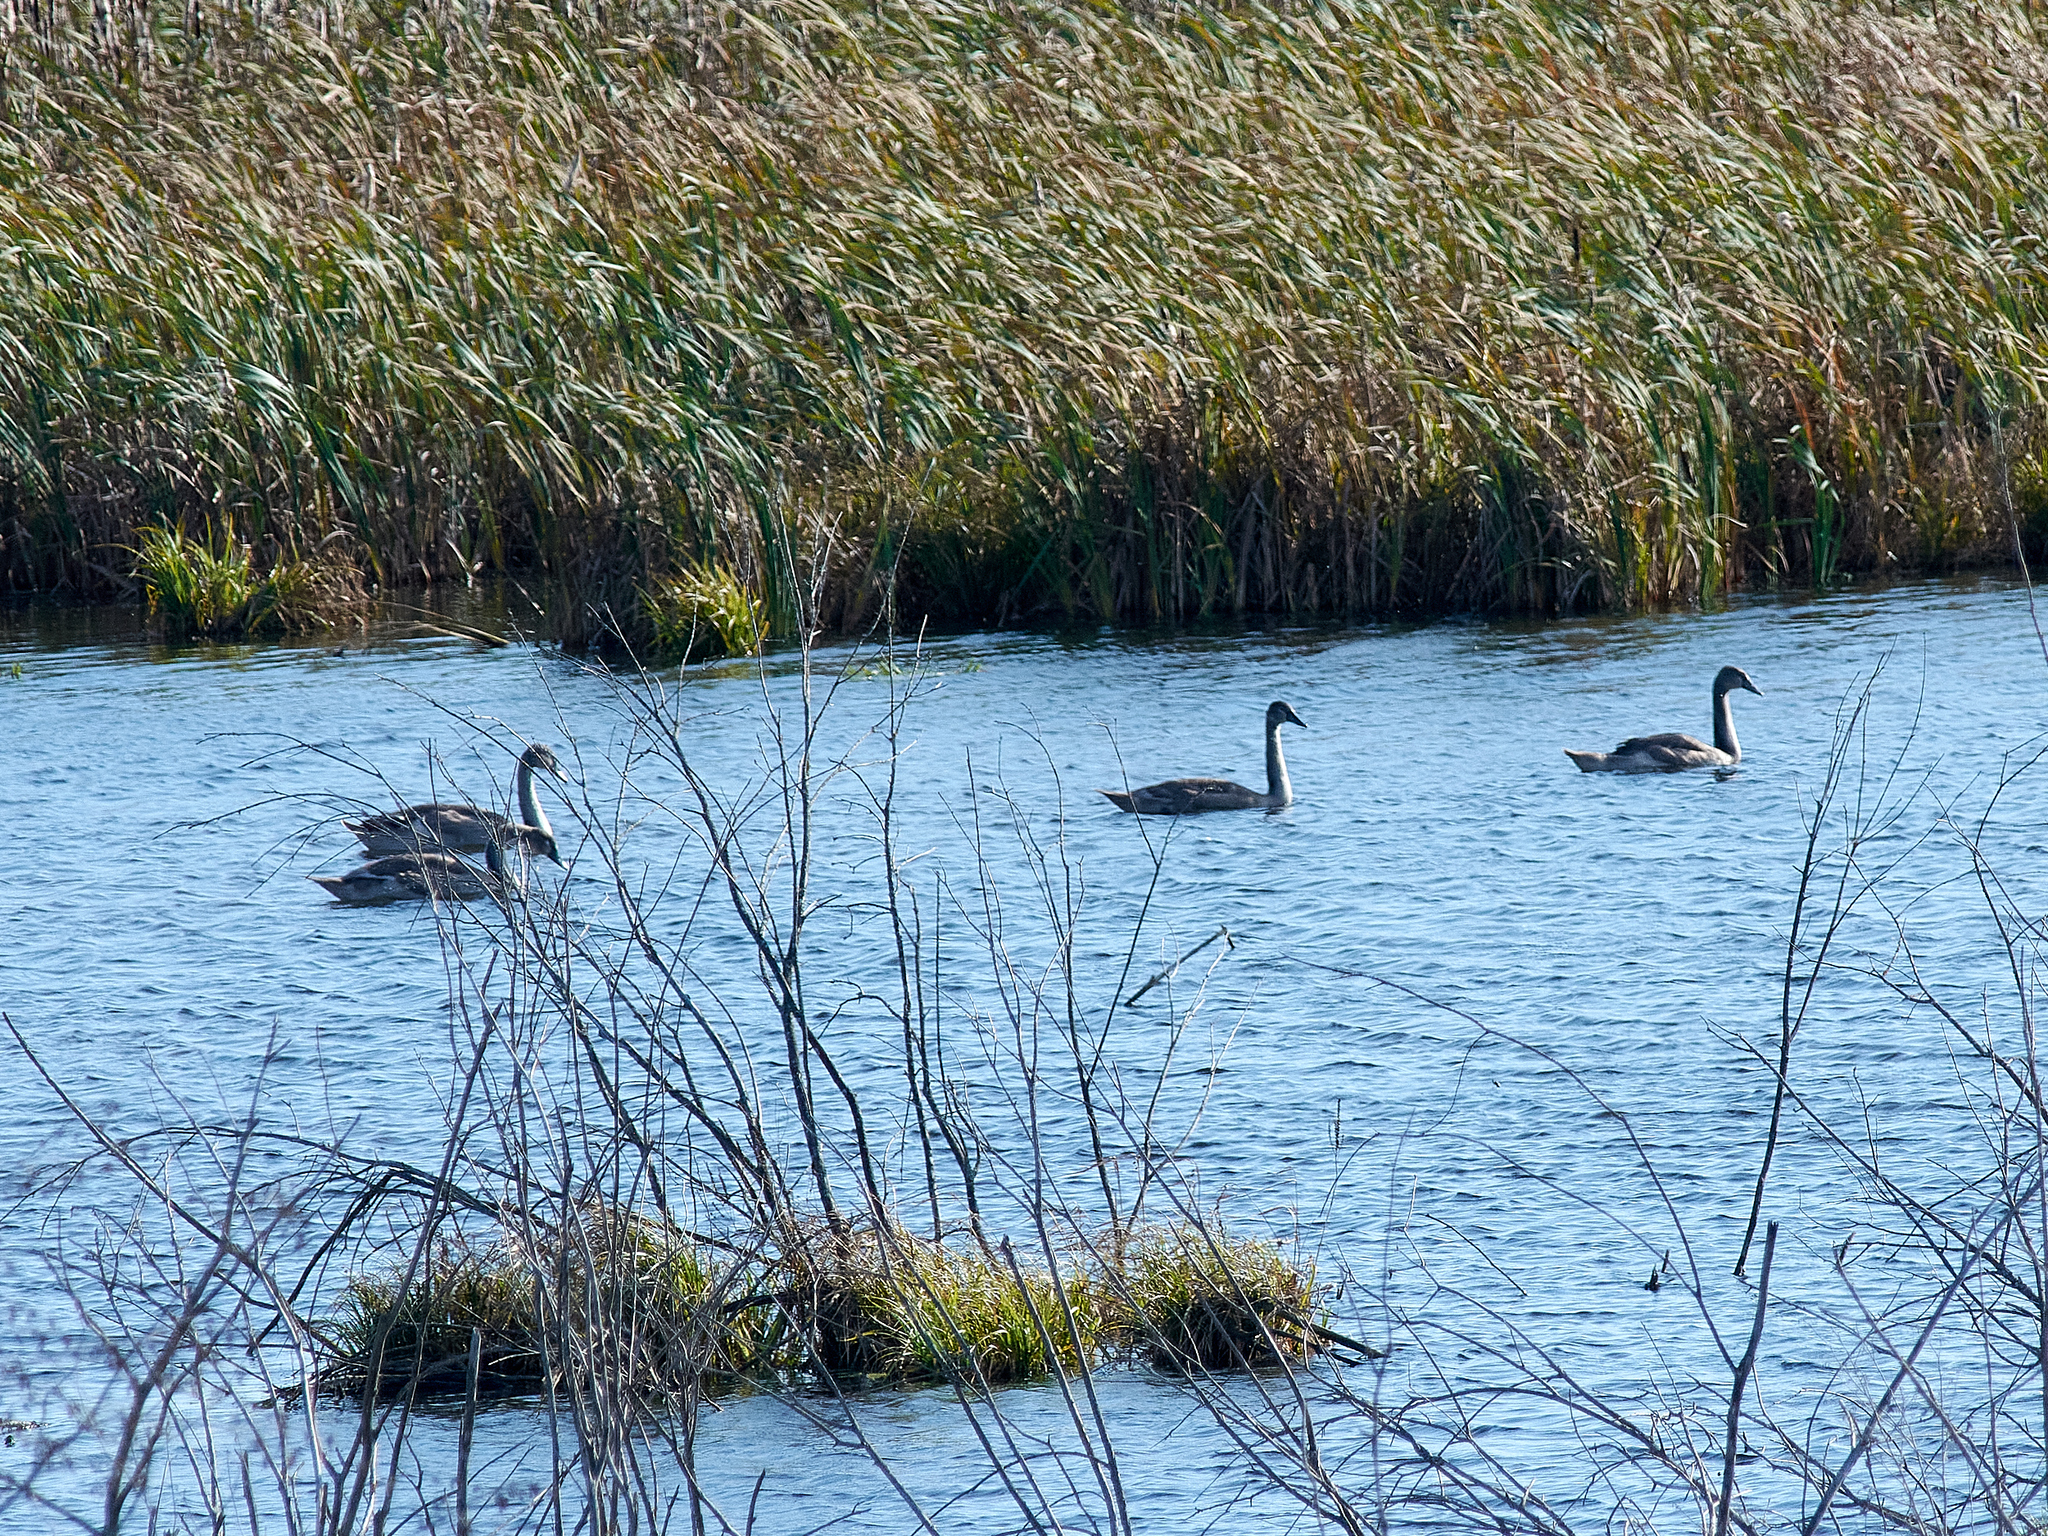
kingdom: Animalia
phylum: Chordata
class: Aves
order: Anseriformes
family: Anatidae
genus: Cygnus
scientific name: Cygnus olor
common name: Mute swan
